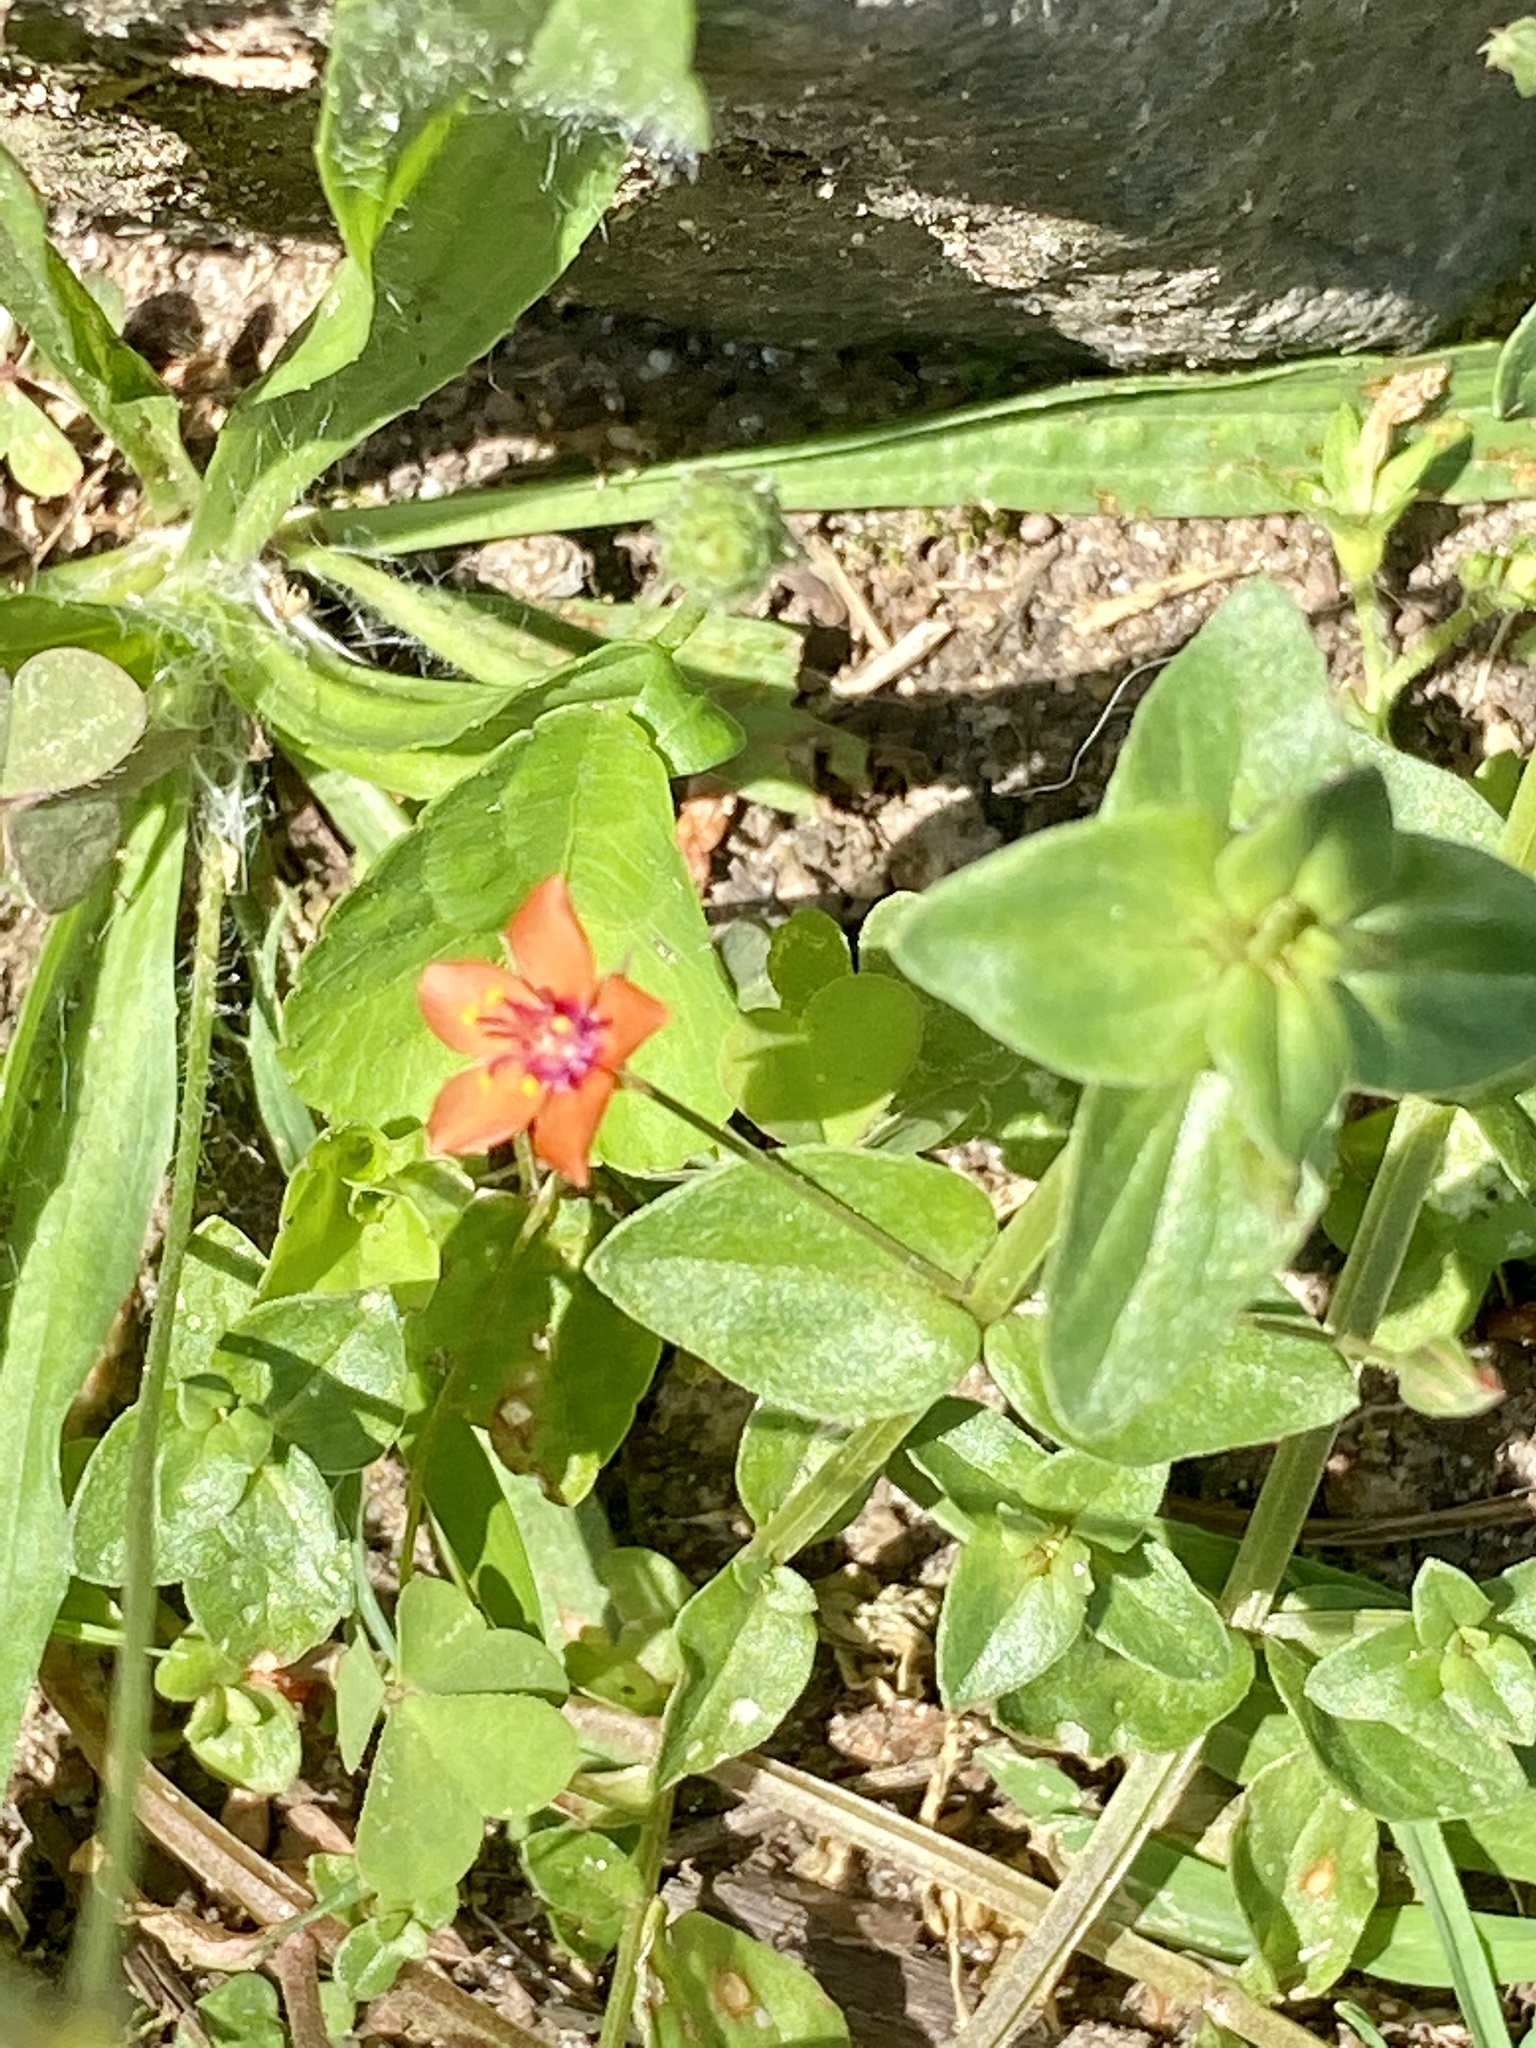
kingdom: Plantae
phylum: Tracheophyta
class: Magnoliopsida
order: Ericales
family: Primulaceae
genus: Lysimachia
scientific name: Lysimachia arvensis
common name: Scarlet pimpernel
